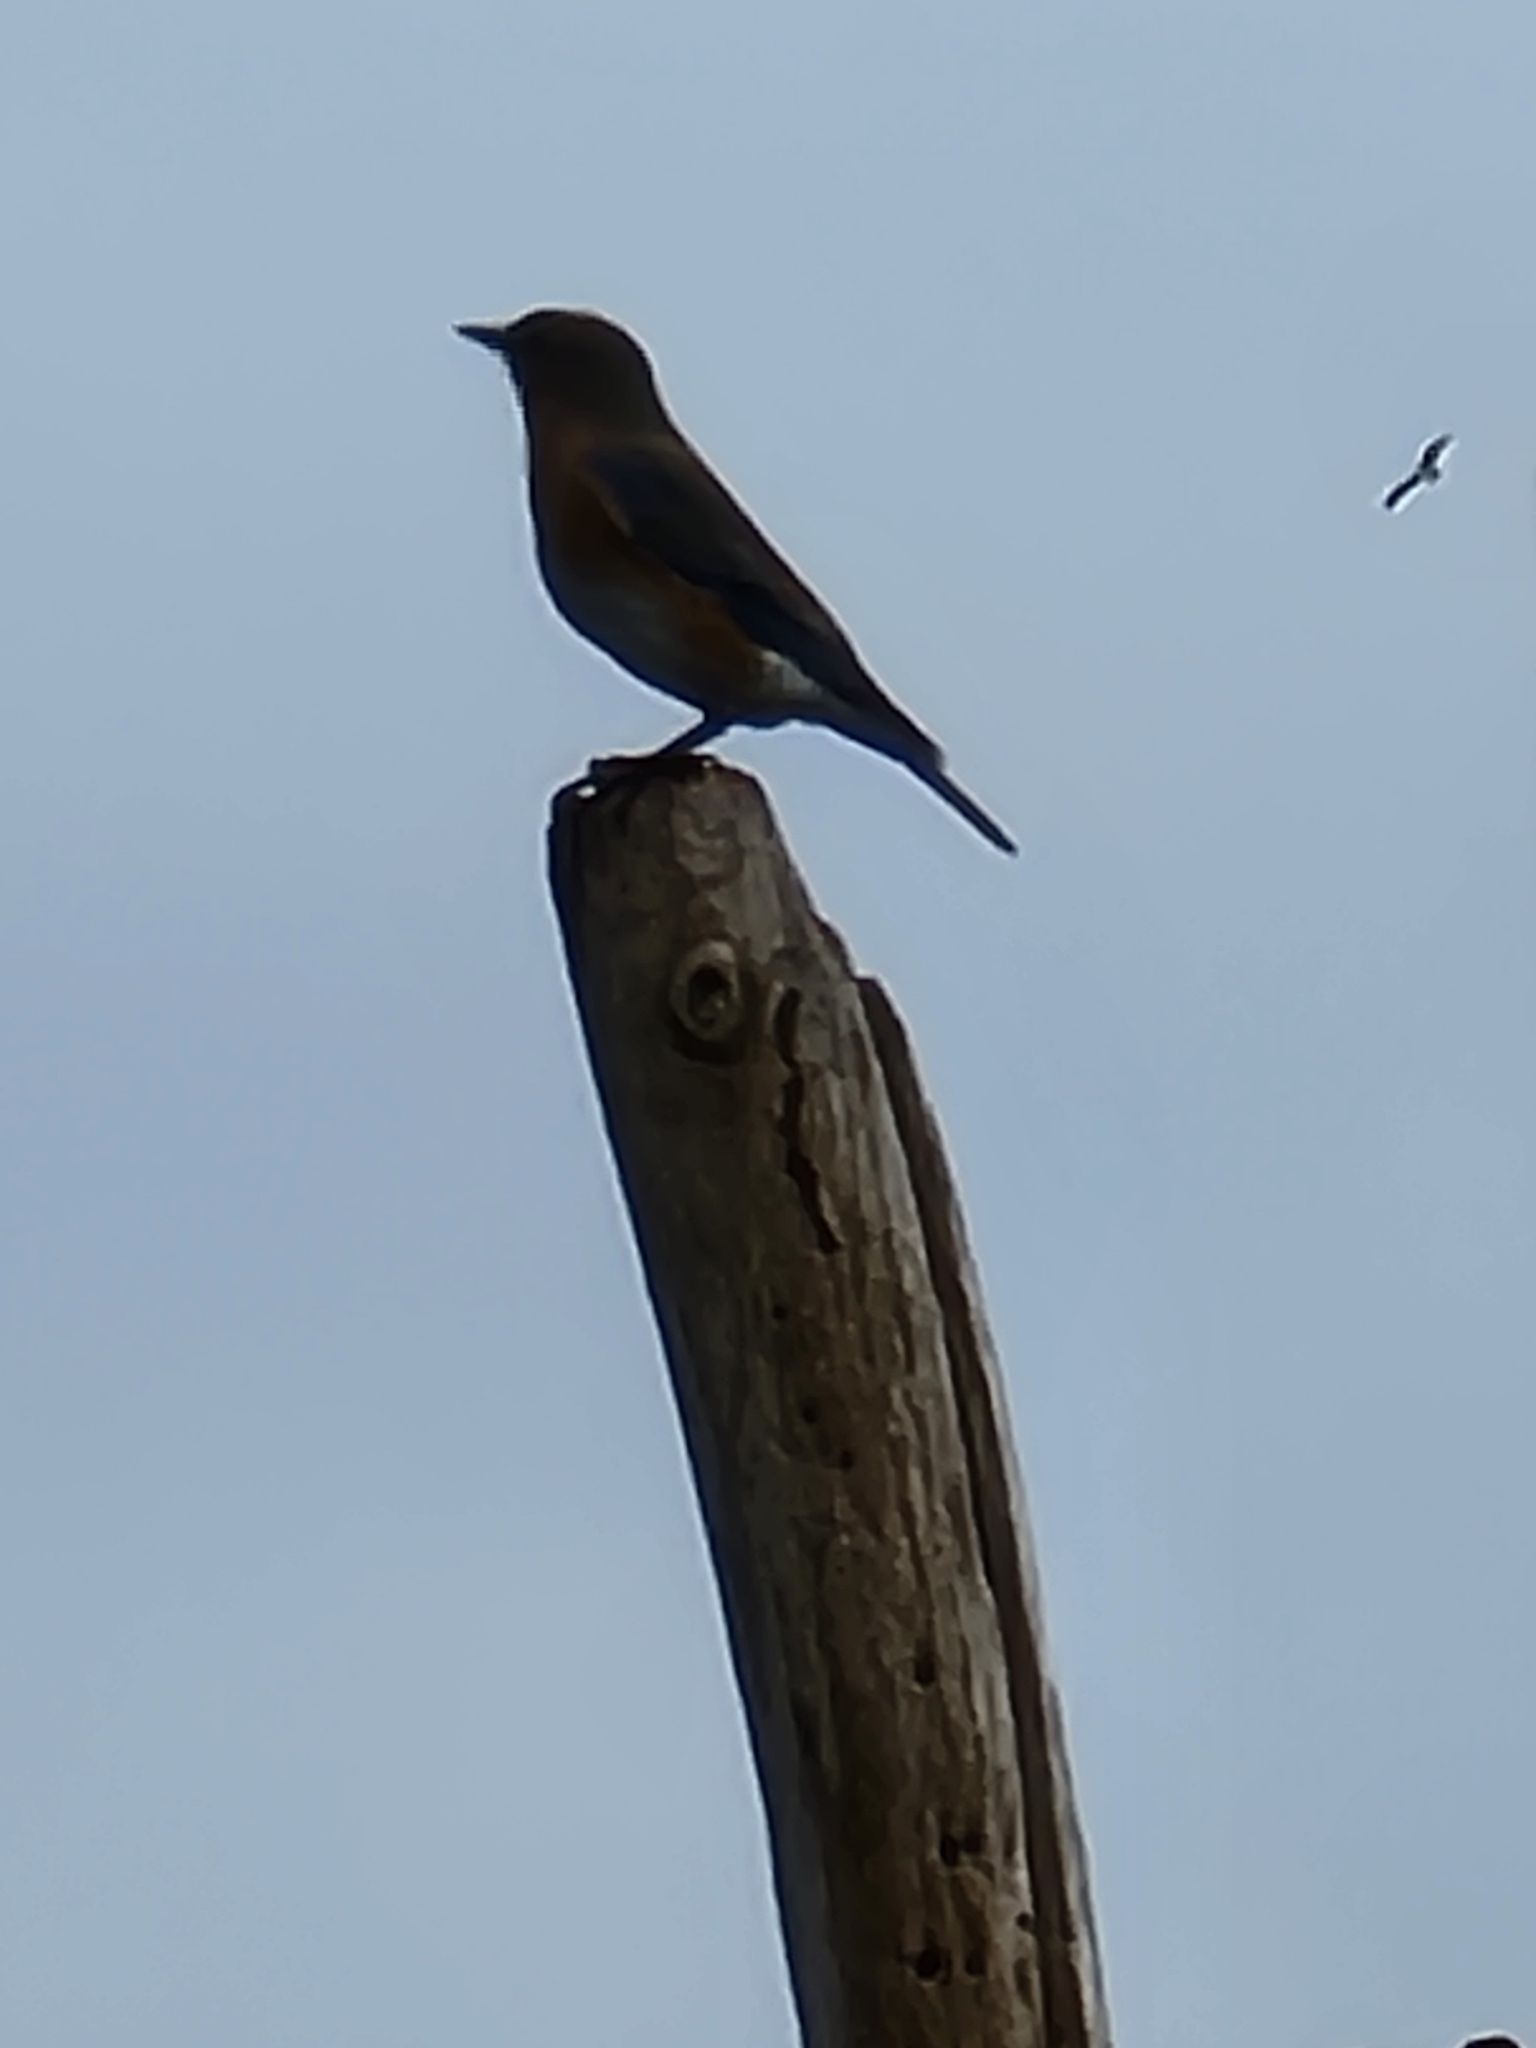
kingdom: Animalia
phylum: Chordata
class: Aves
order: Passeriformes
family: Turdidae
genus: Sialia
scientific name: Sialia sialis
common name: Eastern bluebird
